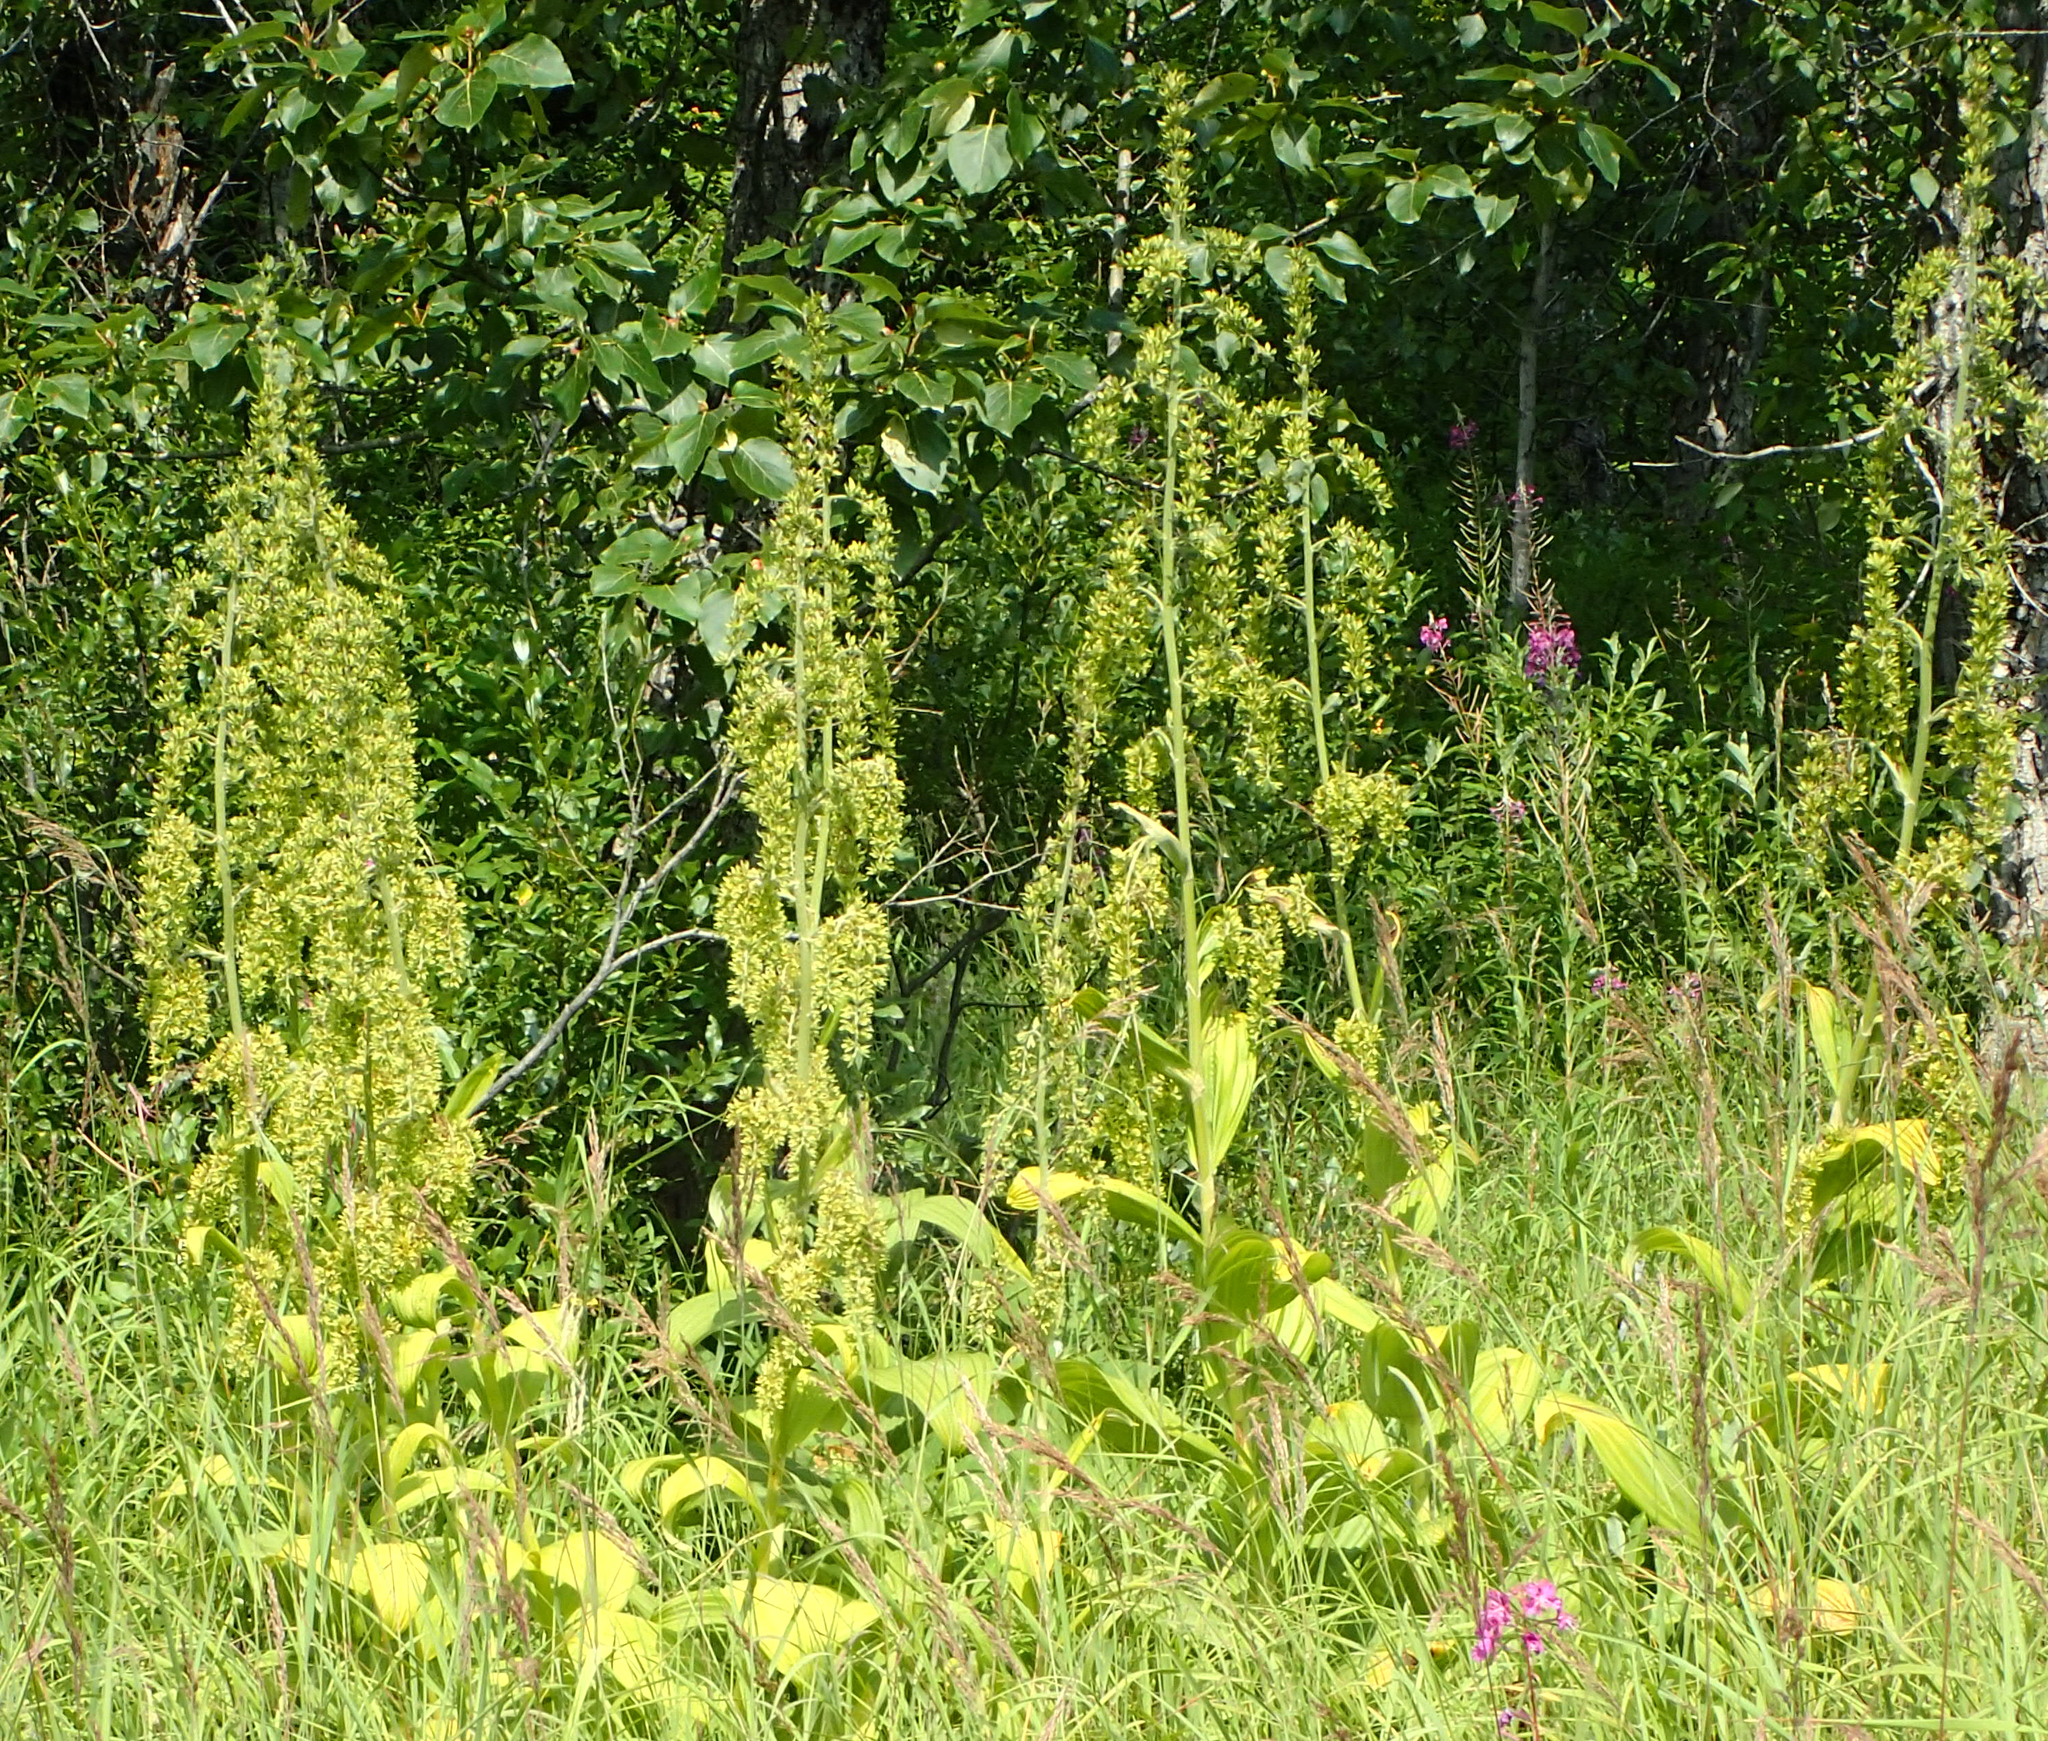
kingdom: Plantae
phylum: Tracheophyta
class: Liliopsida
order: Liliales
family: Melanthiaceae
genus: Veratrum
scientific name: Veratrum viride
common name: American false hellebore
